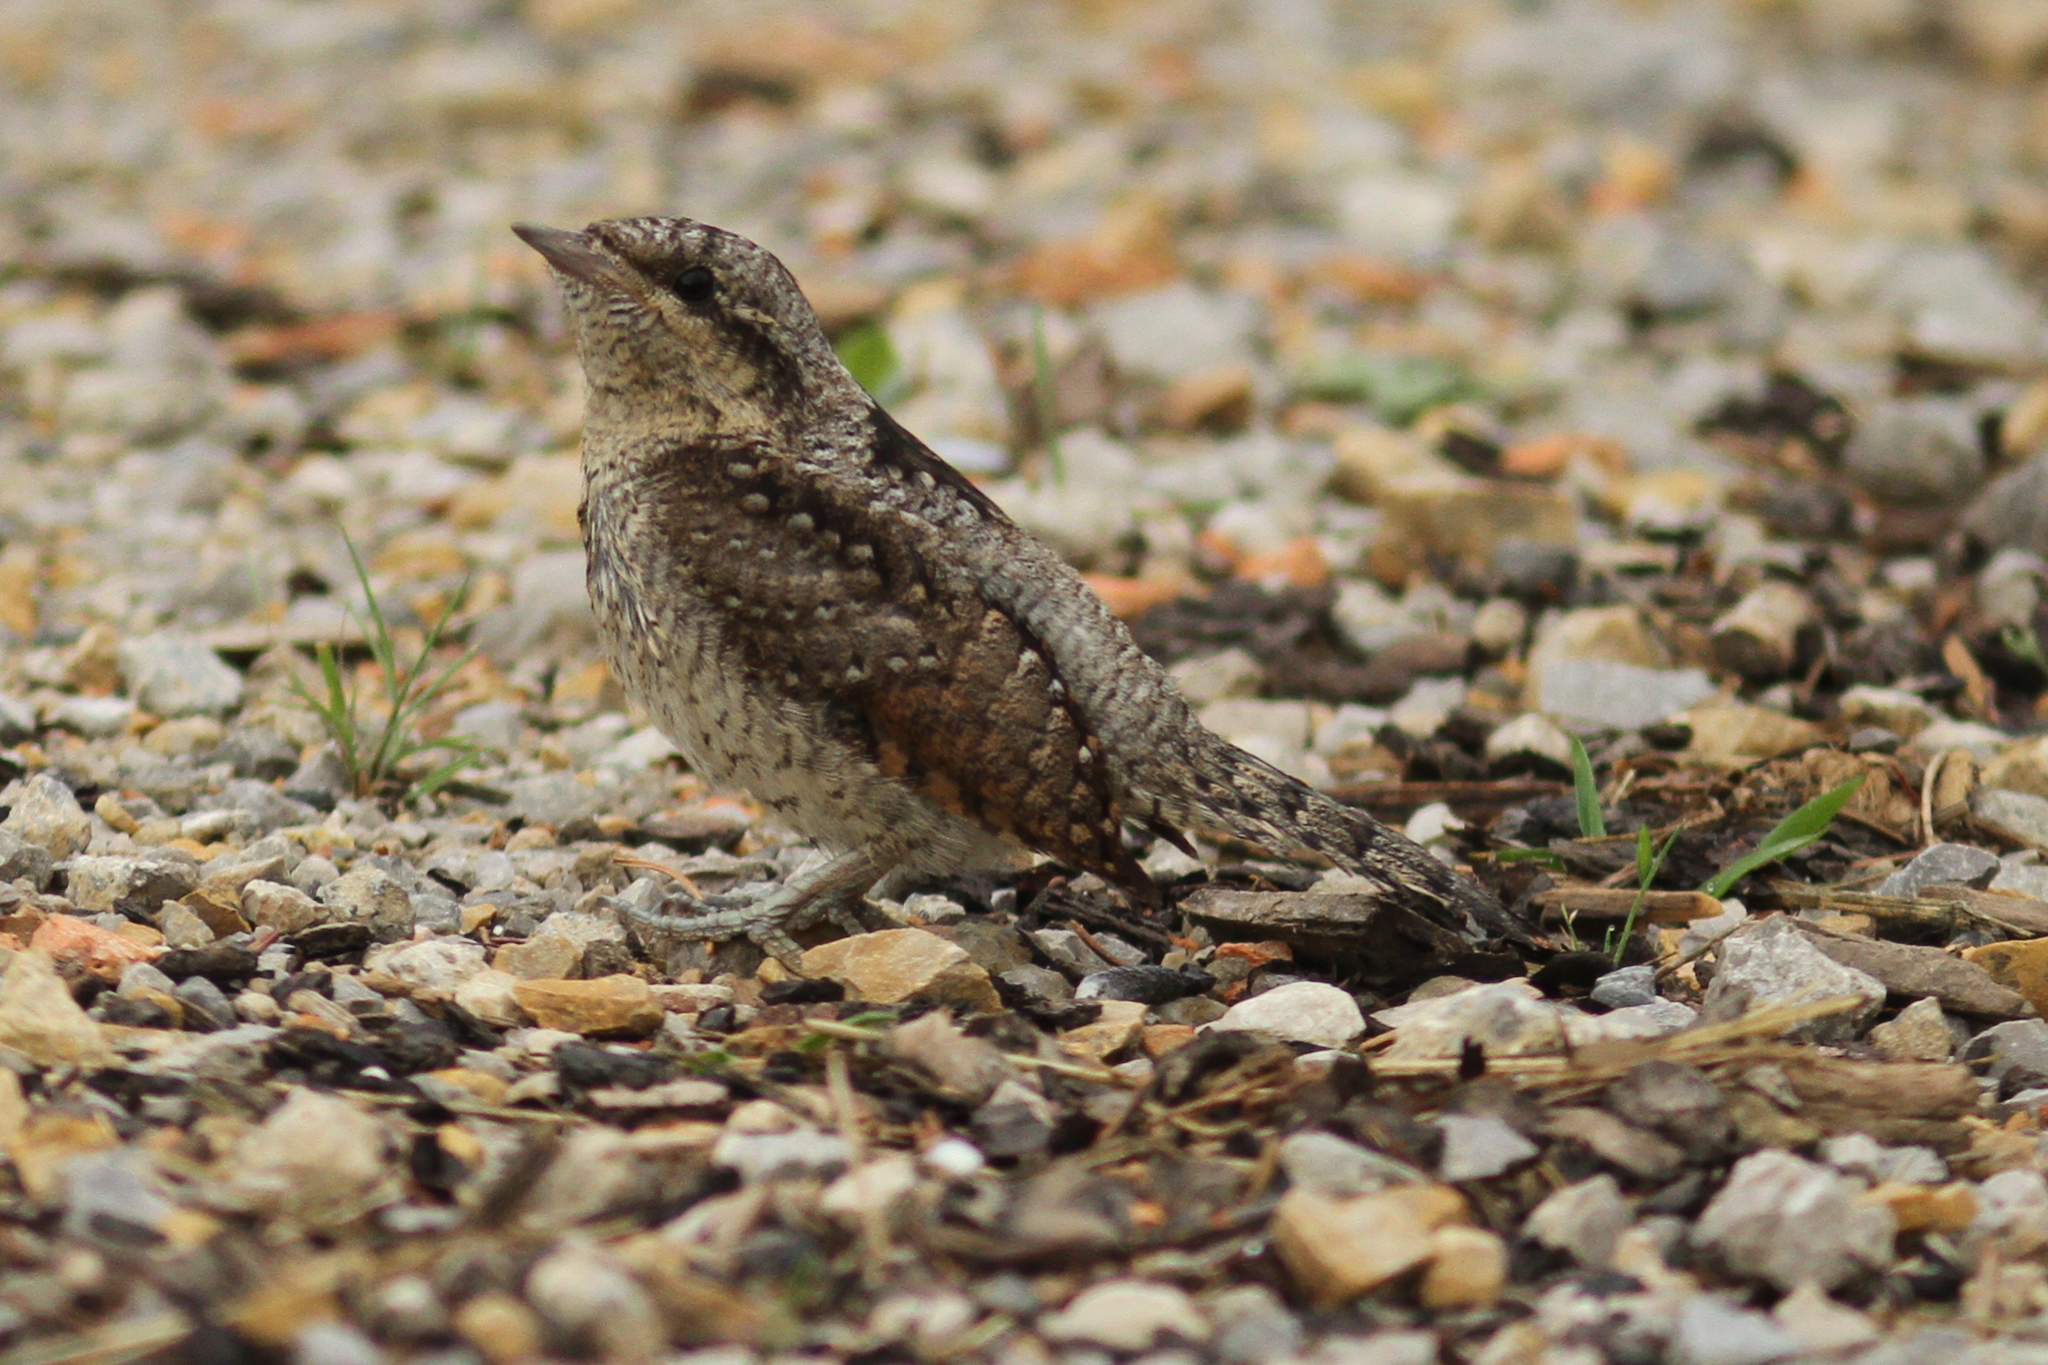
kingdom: Animalia
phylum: Chordata
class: Aves
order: Piciformes
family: Picidae
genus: Jynx
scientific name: Jynx torquilla
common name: Eurasian wryneck
